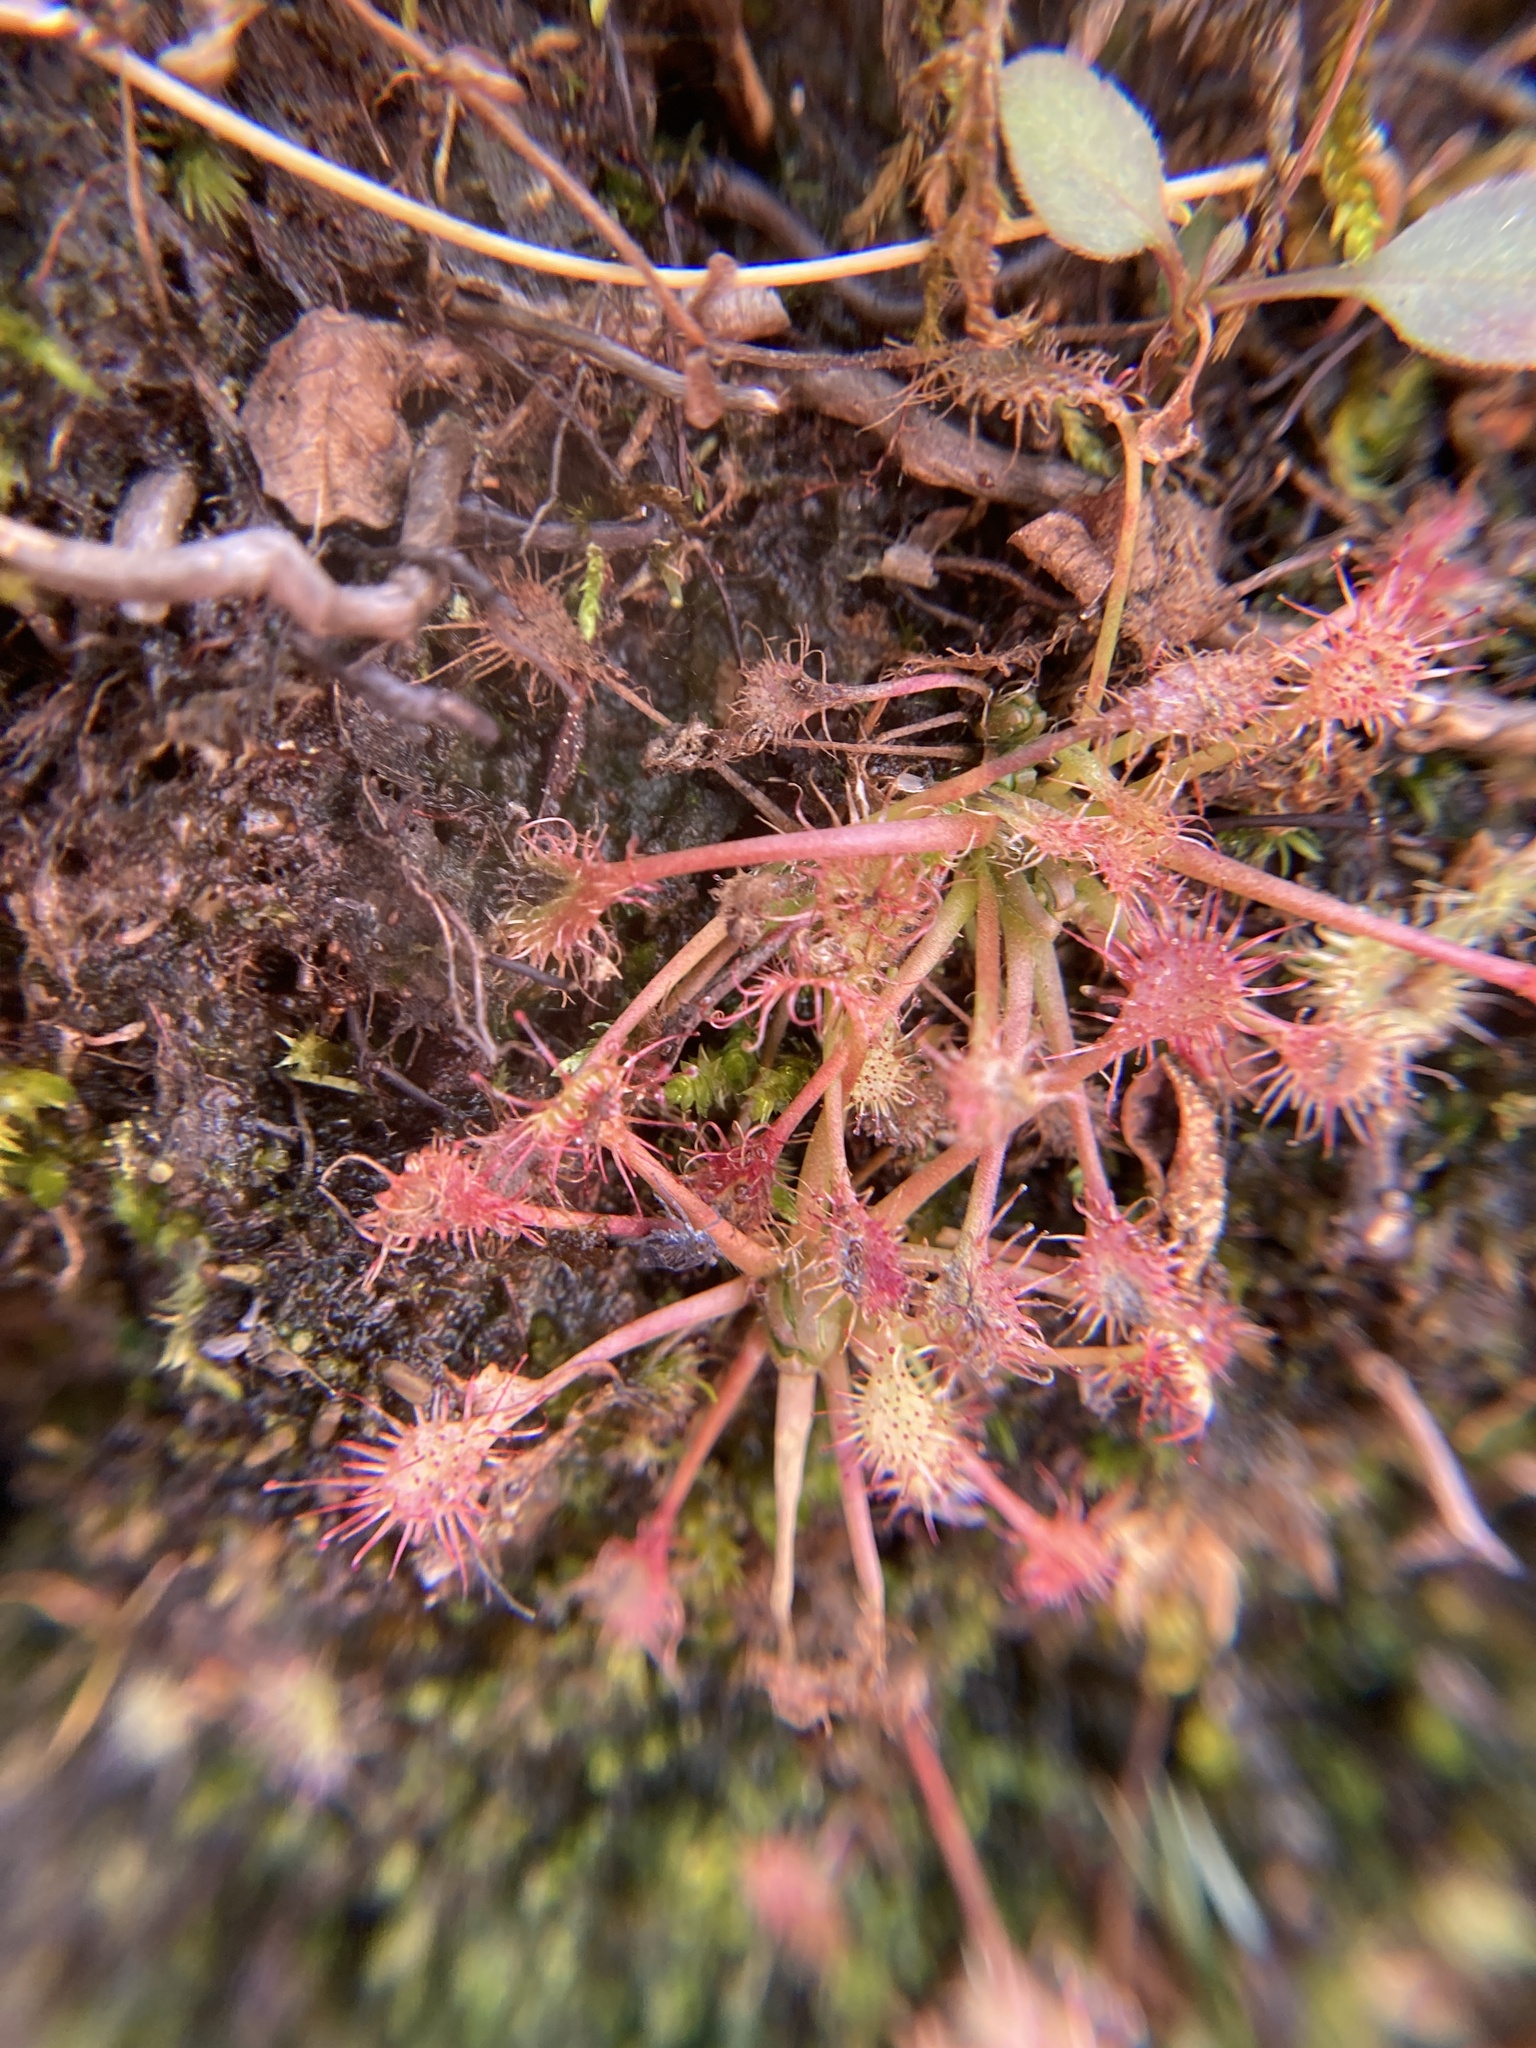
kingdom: Plantae
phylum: Tracheophyta
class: Magnoliopsida
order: Caryophyllales
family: Droseraceae
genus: Drosera
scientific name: Drosera intermedia
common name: Oblong-leaved sundew
